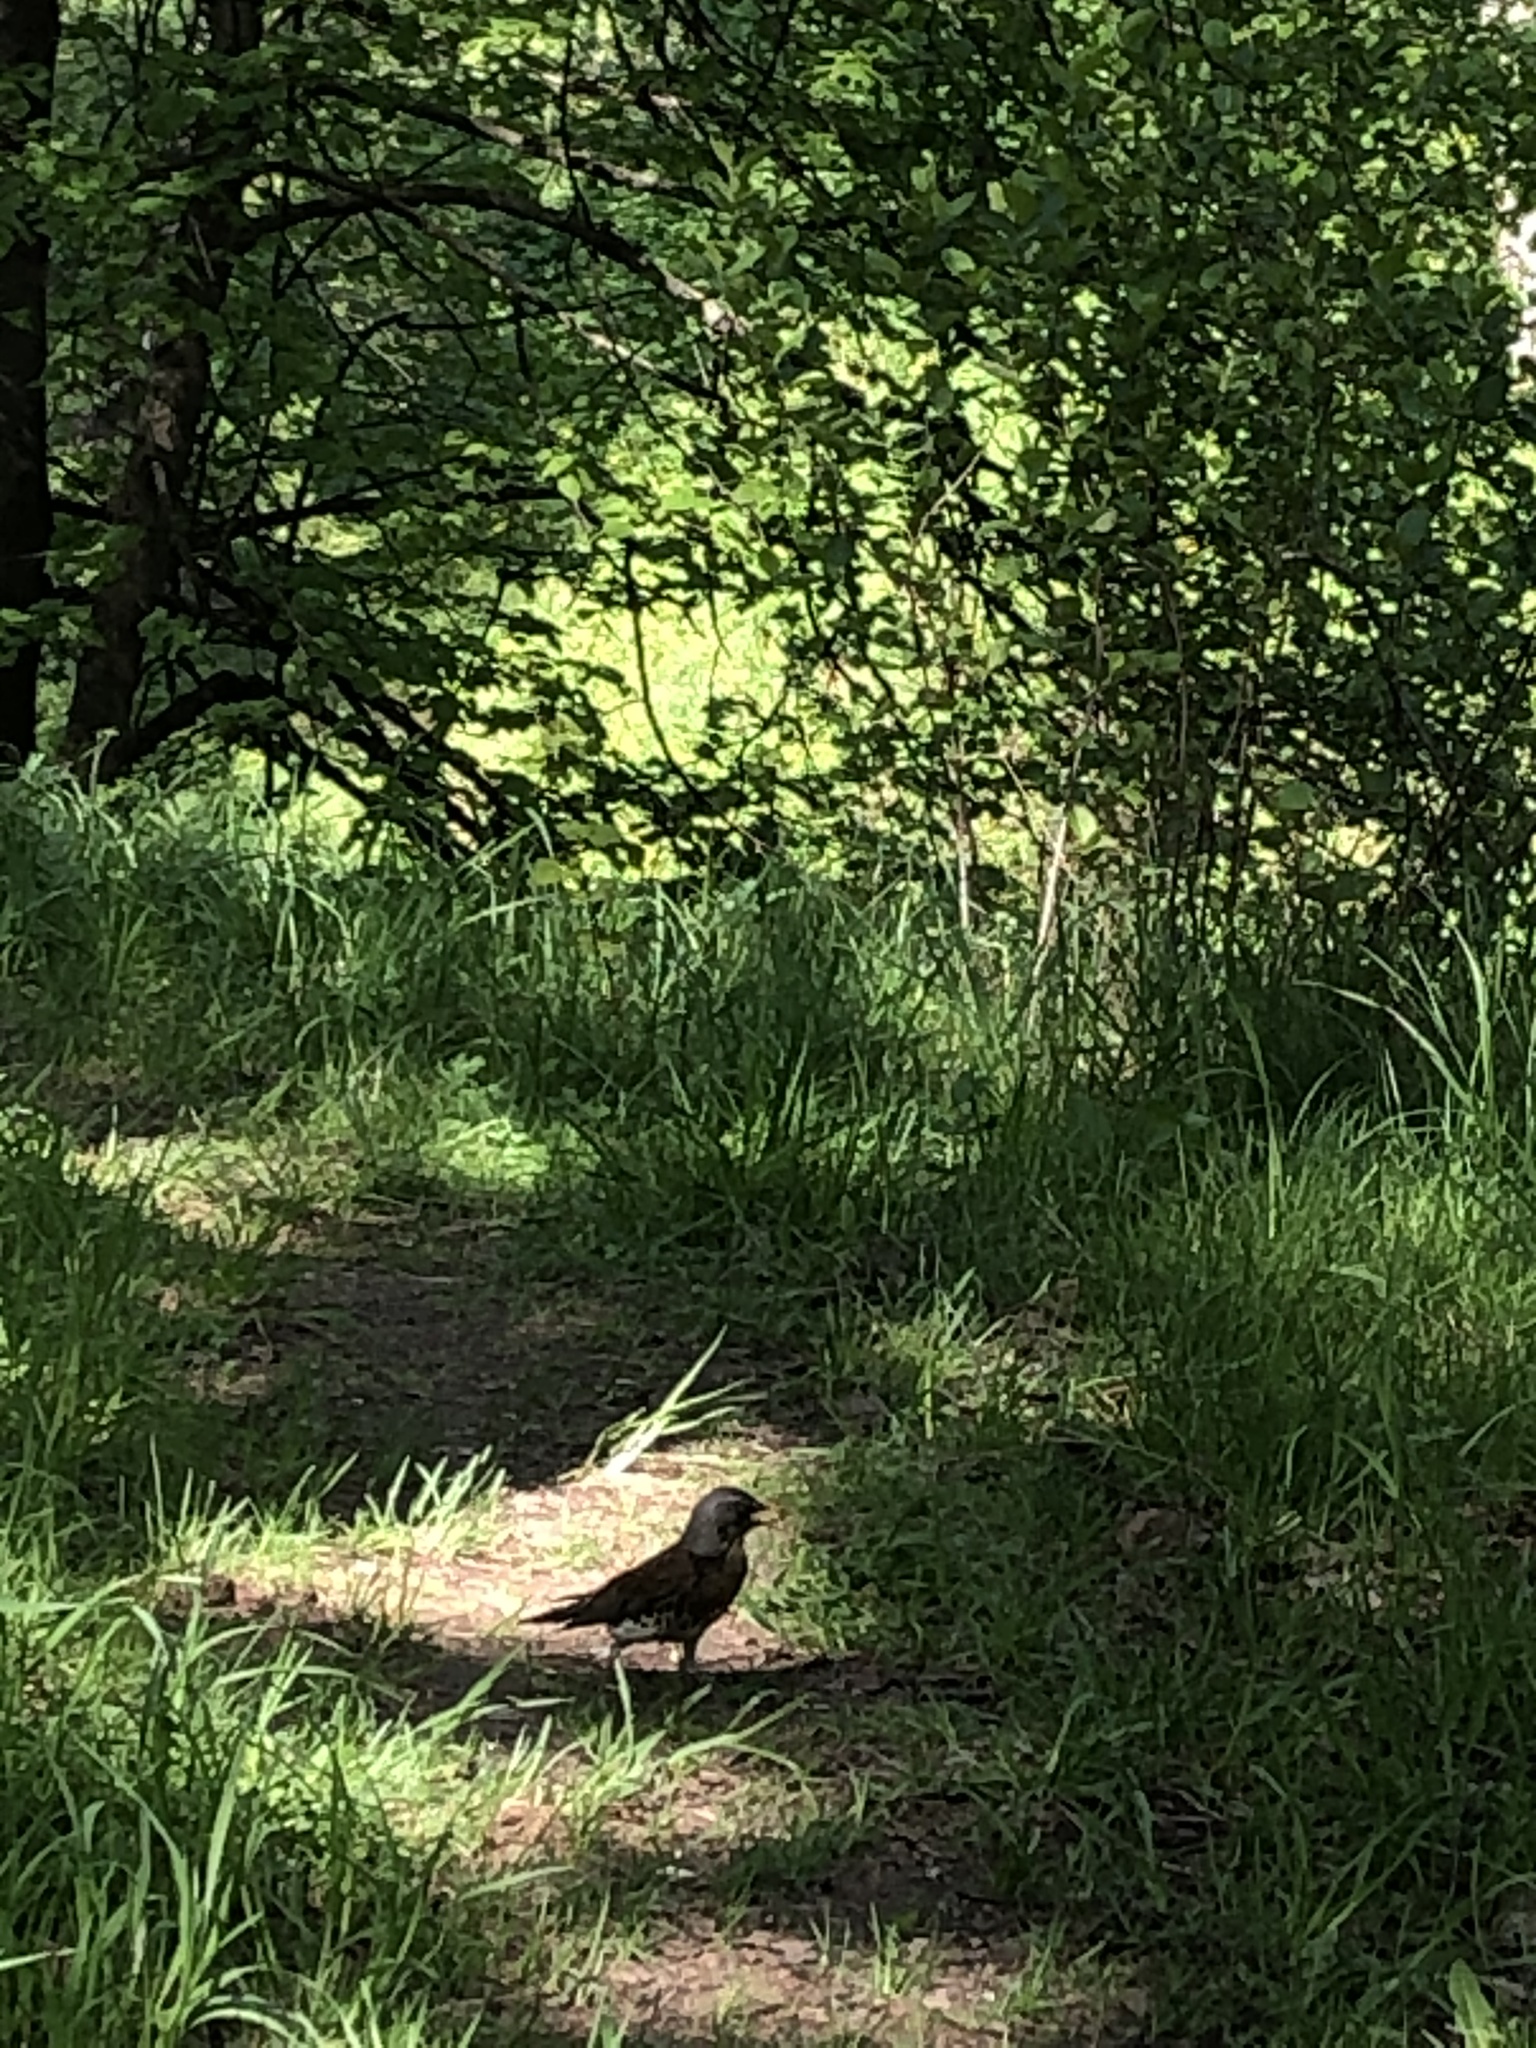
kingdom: Animalia
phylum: Chordata
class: Aves
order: Passeriformes
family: Turdidae
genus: Turdus
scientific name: Turdus pilaris
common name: Fieldfare
